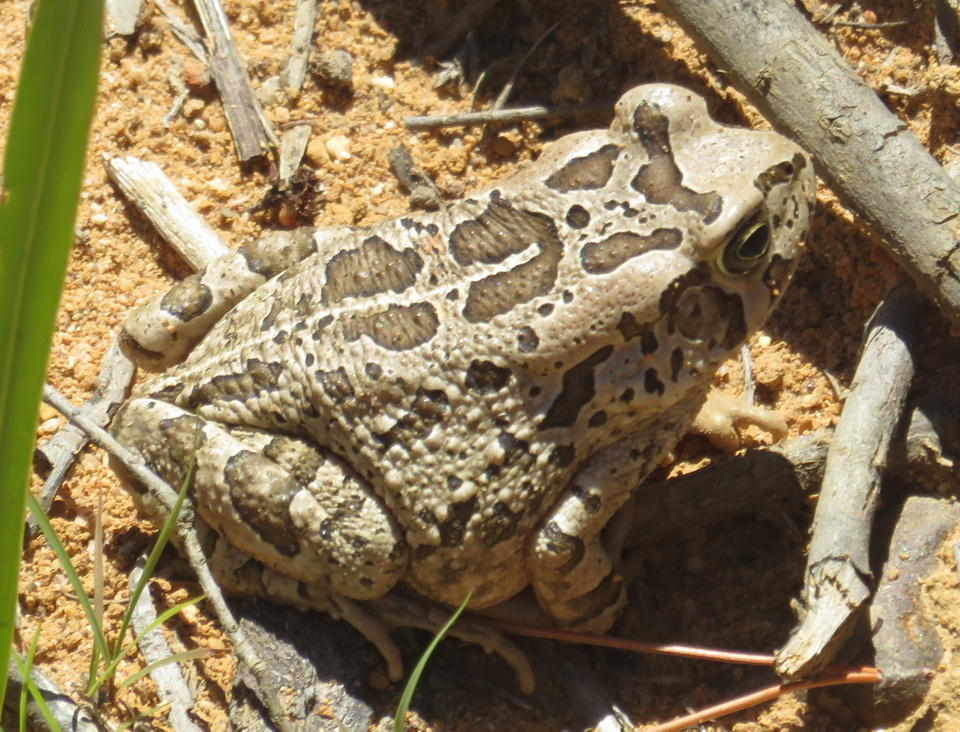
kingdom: Animalia
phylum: Chordata
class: Amphibia
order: Anura
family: Bufonidae
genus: Sclerophrys
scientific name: Sclerophrys capensis
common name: Ranger’s toad
